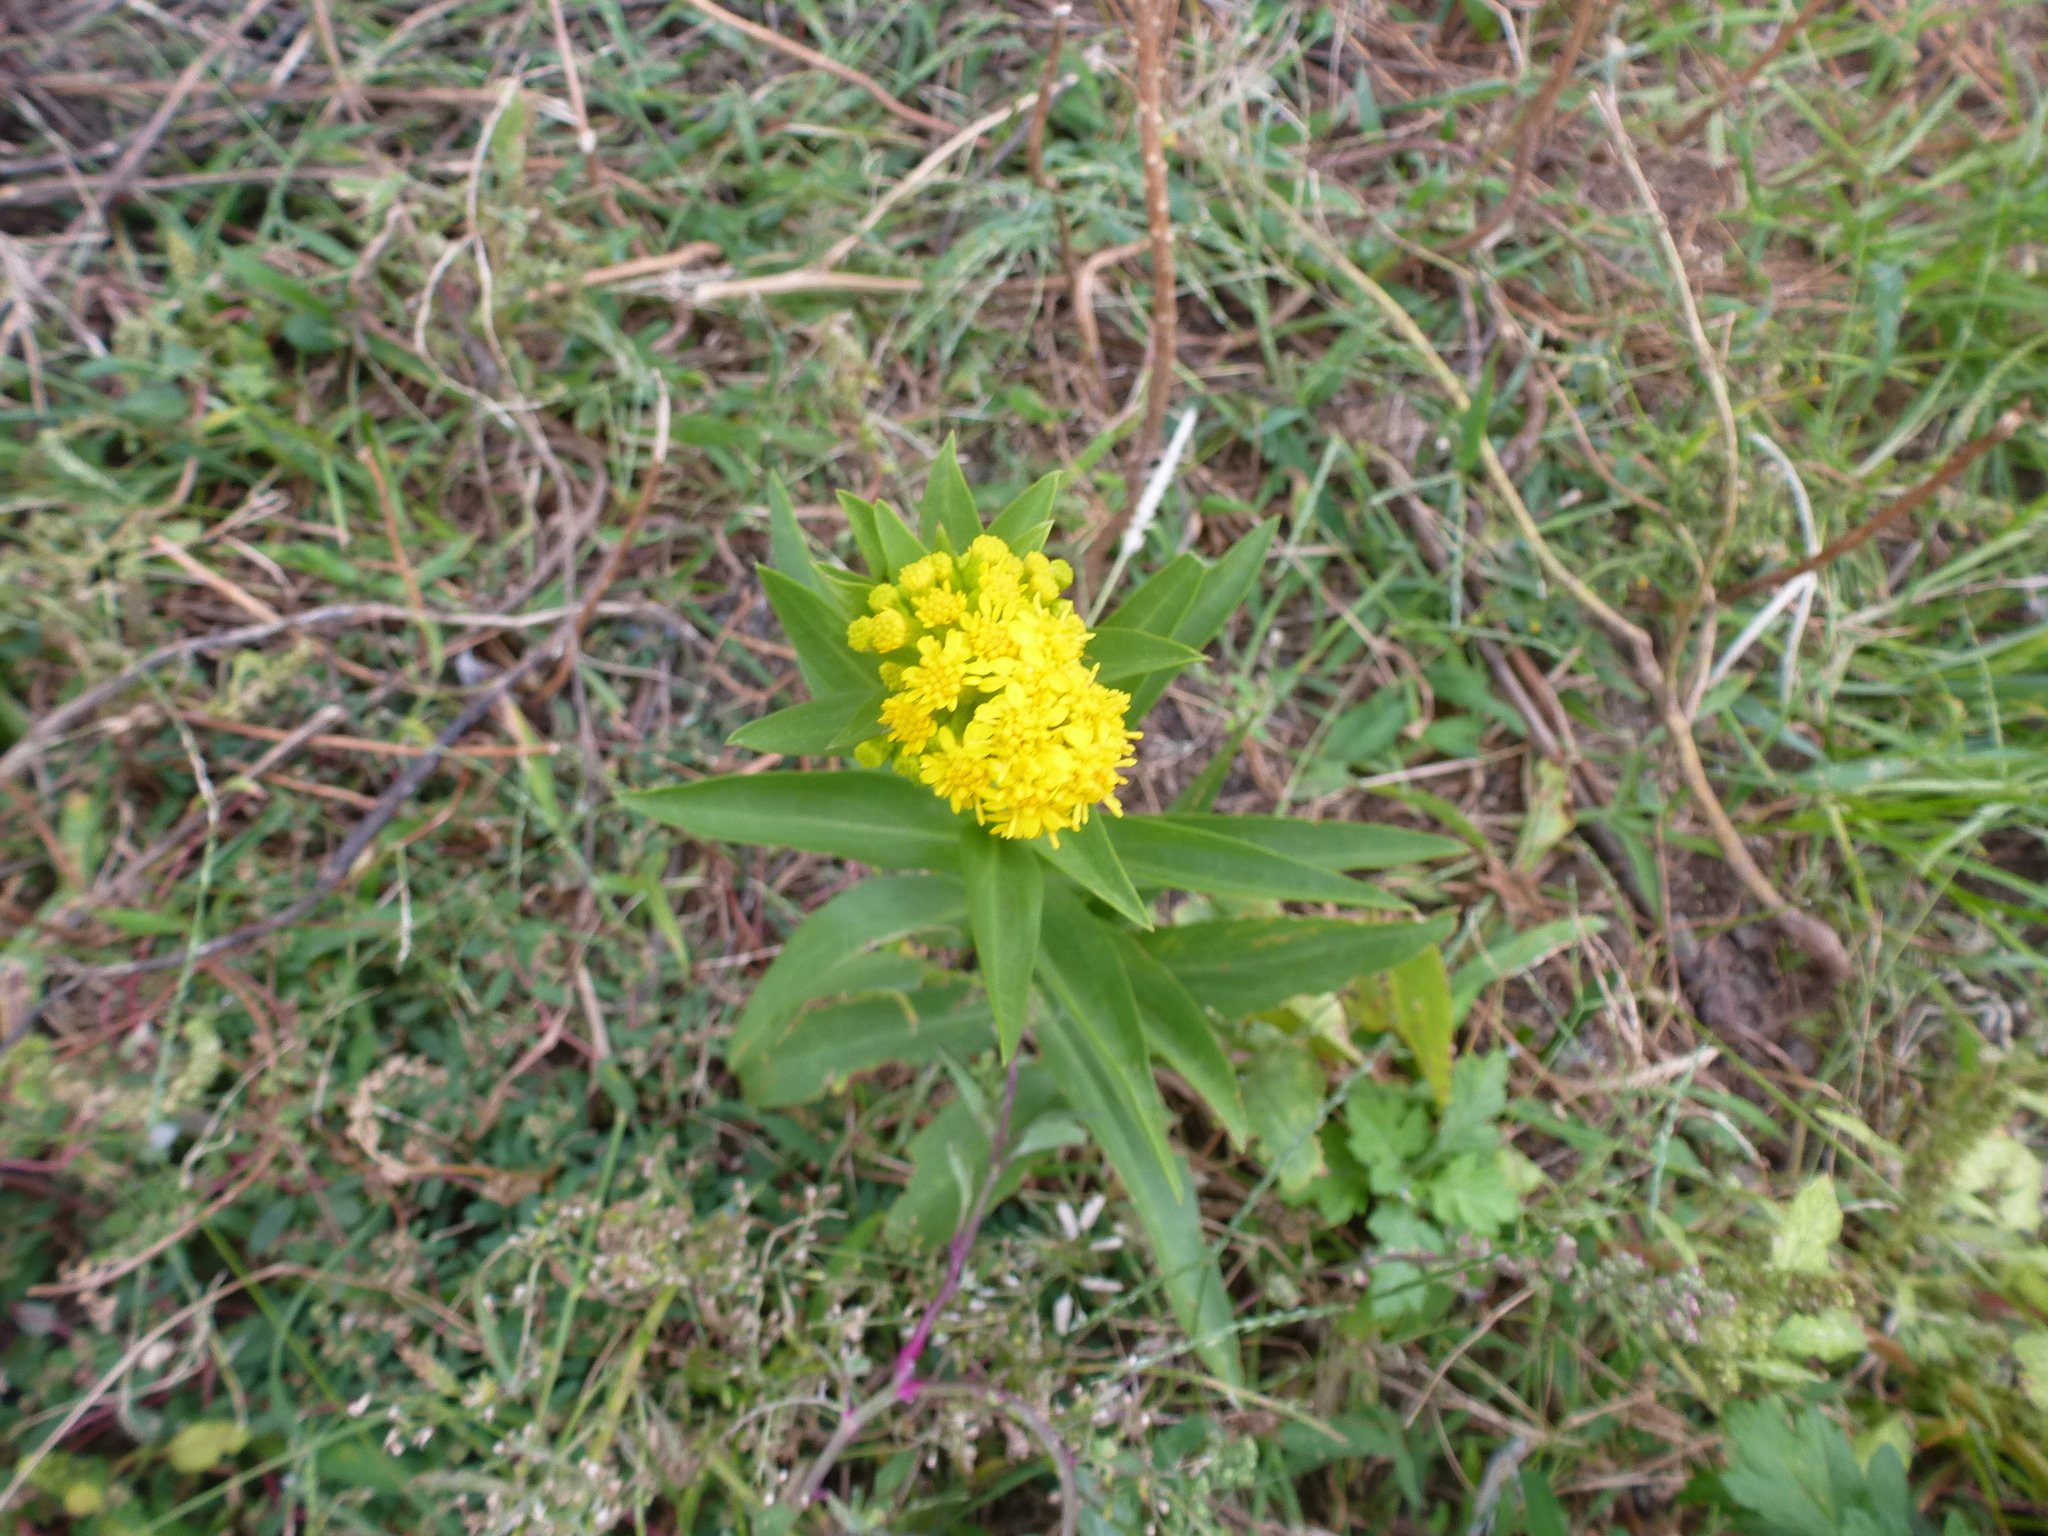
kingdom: Plantae
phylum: Tracheophyta
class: Magnoliopsida
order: Asterales
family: Asteraceae
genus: Solidago
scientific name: Solidago sempervirens
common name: Salt-marsh goldenrod
